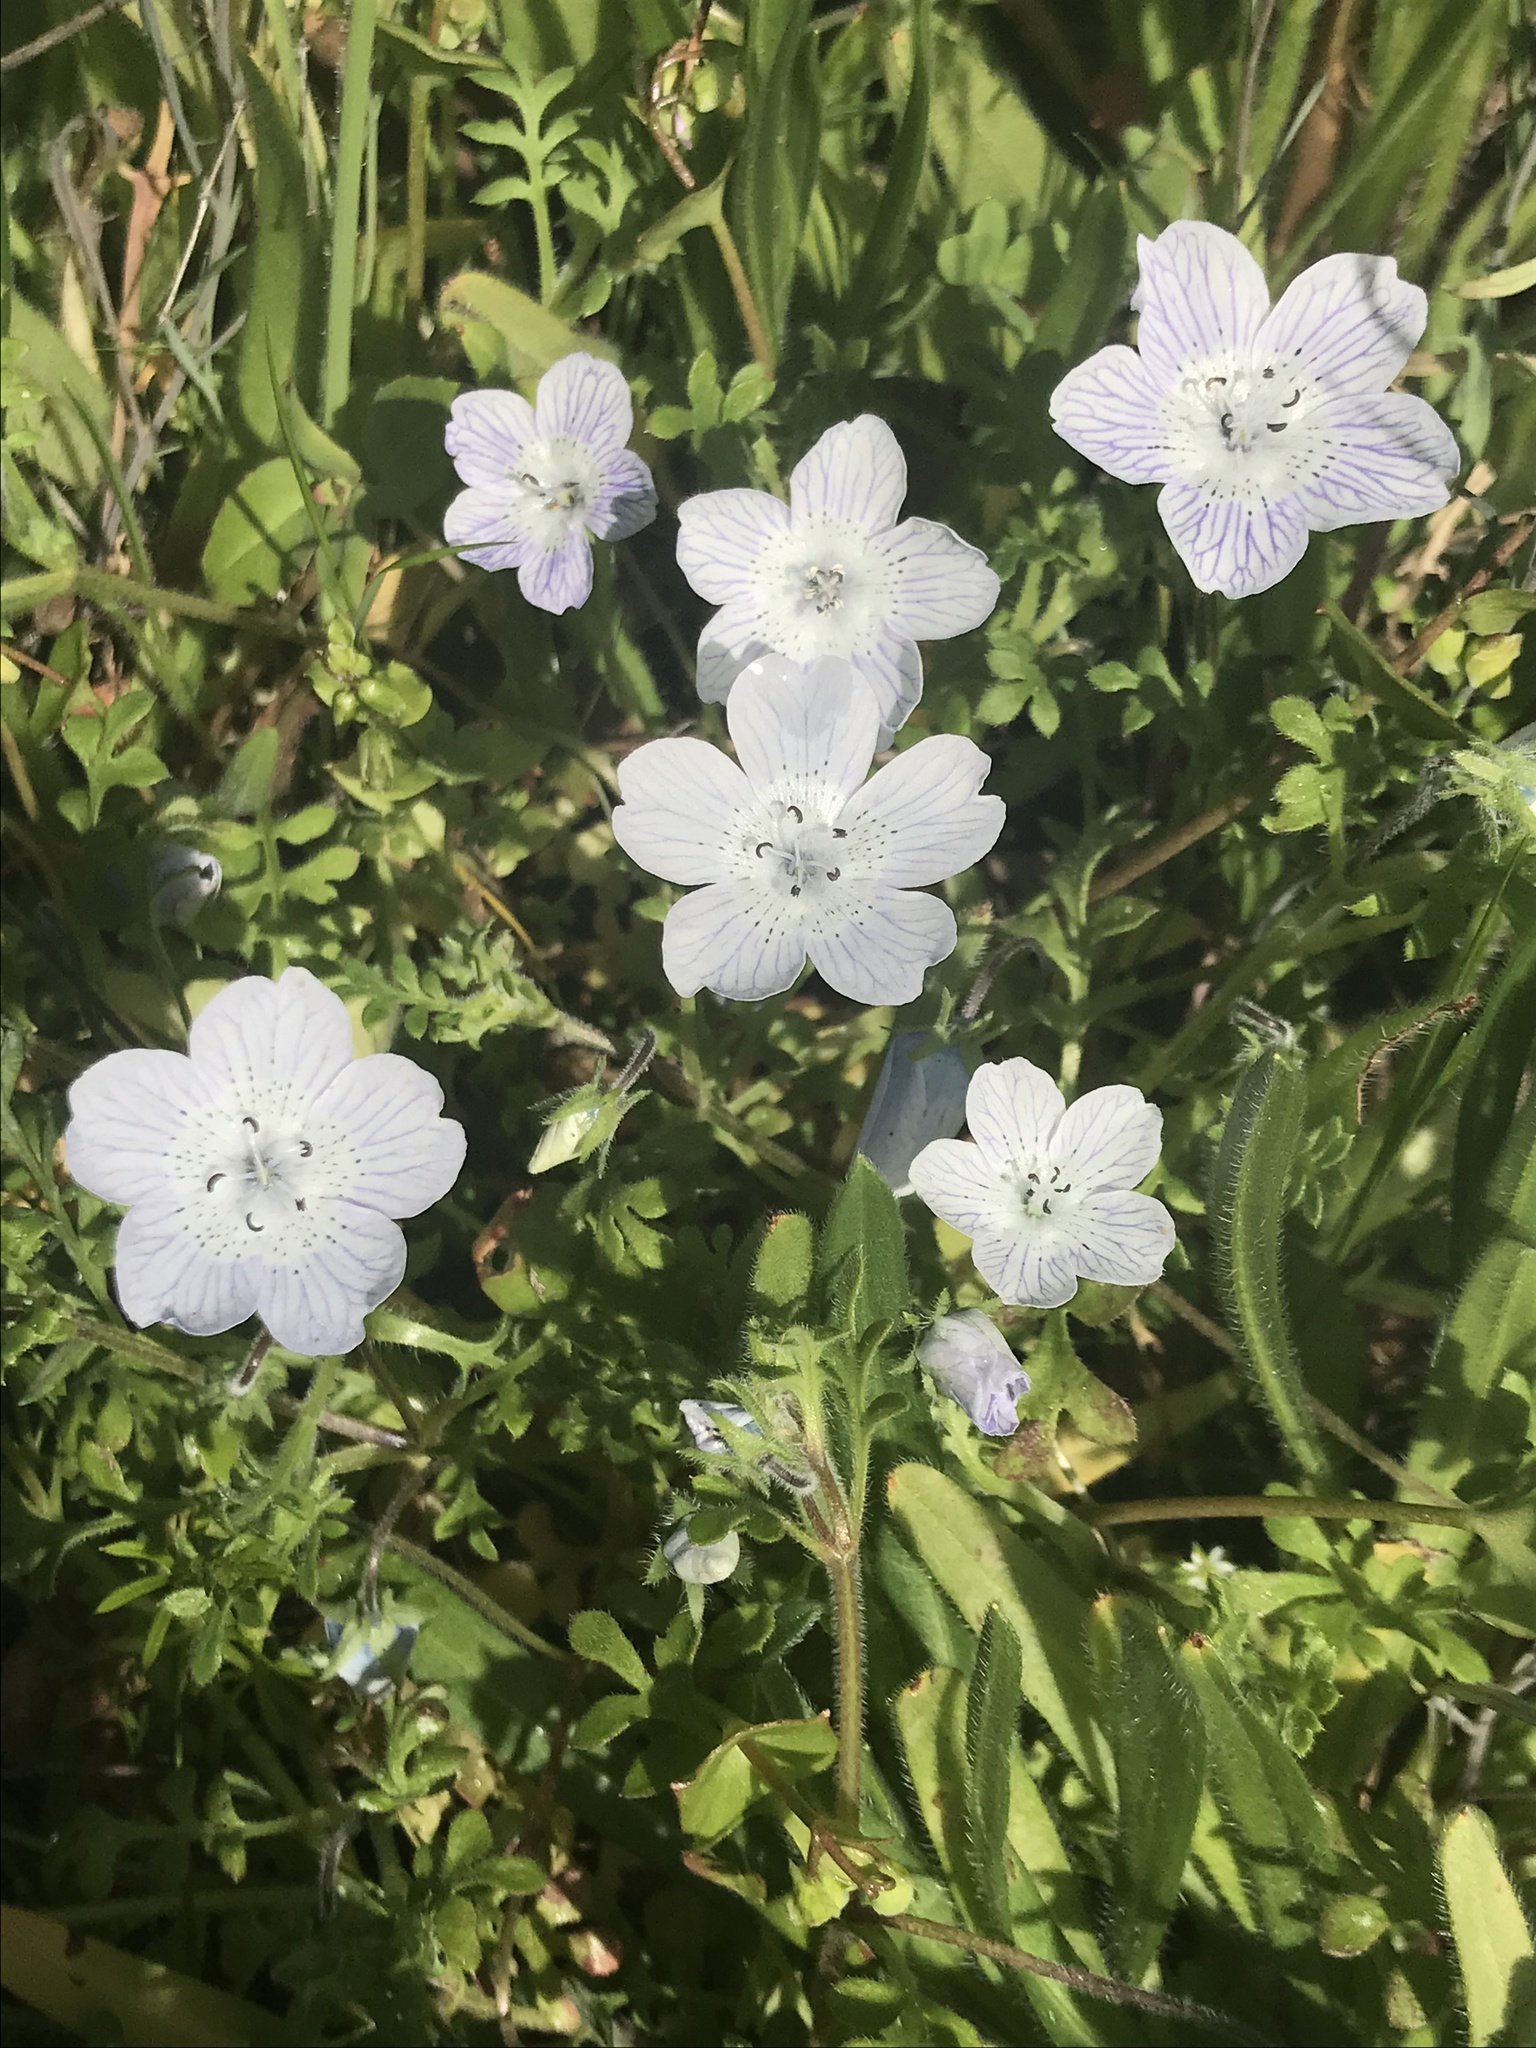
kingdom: Plantae
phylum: Tracheophyta
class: Magnoliopsida
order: Boraginales
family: Hydrophyllaceae
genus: Nemophila
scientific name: Nemophila menziesii
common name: Baby's-blue-eyes
